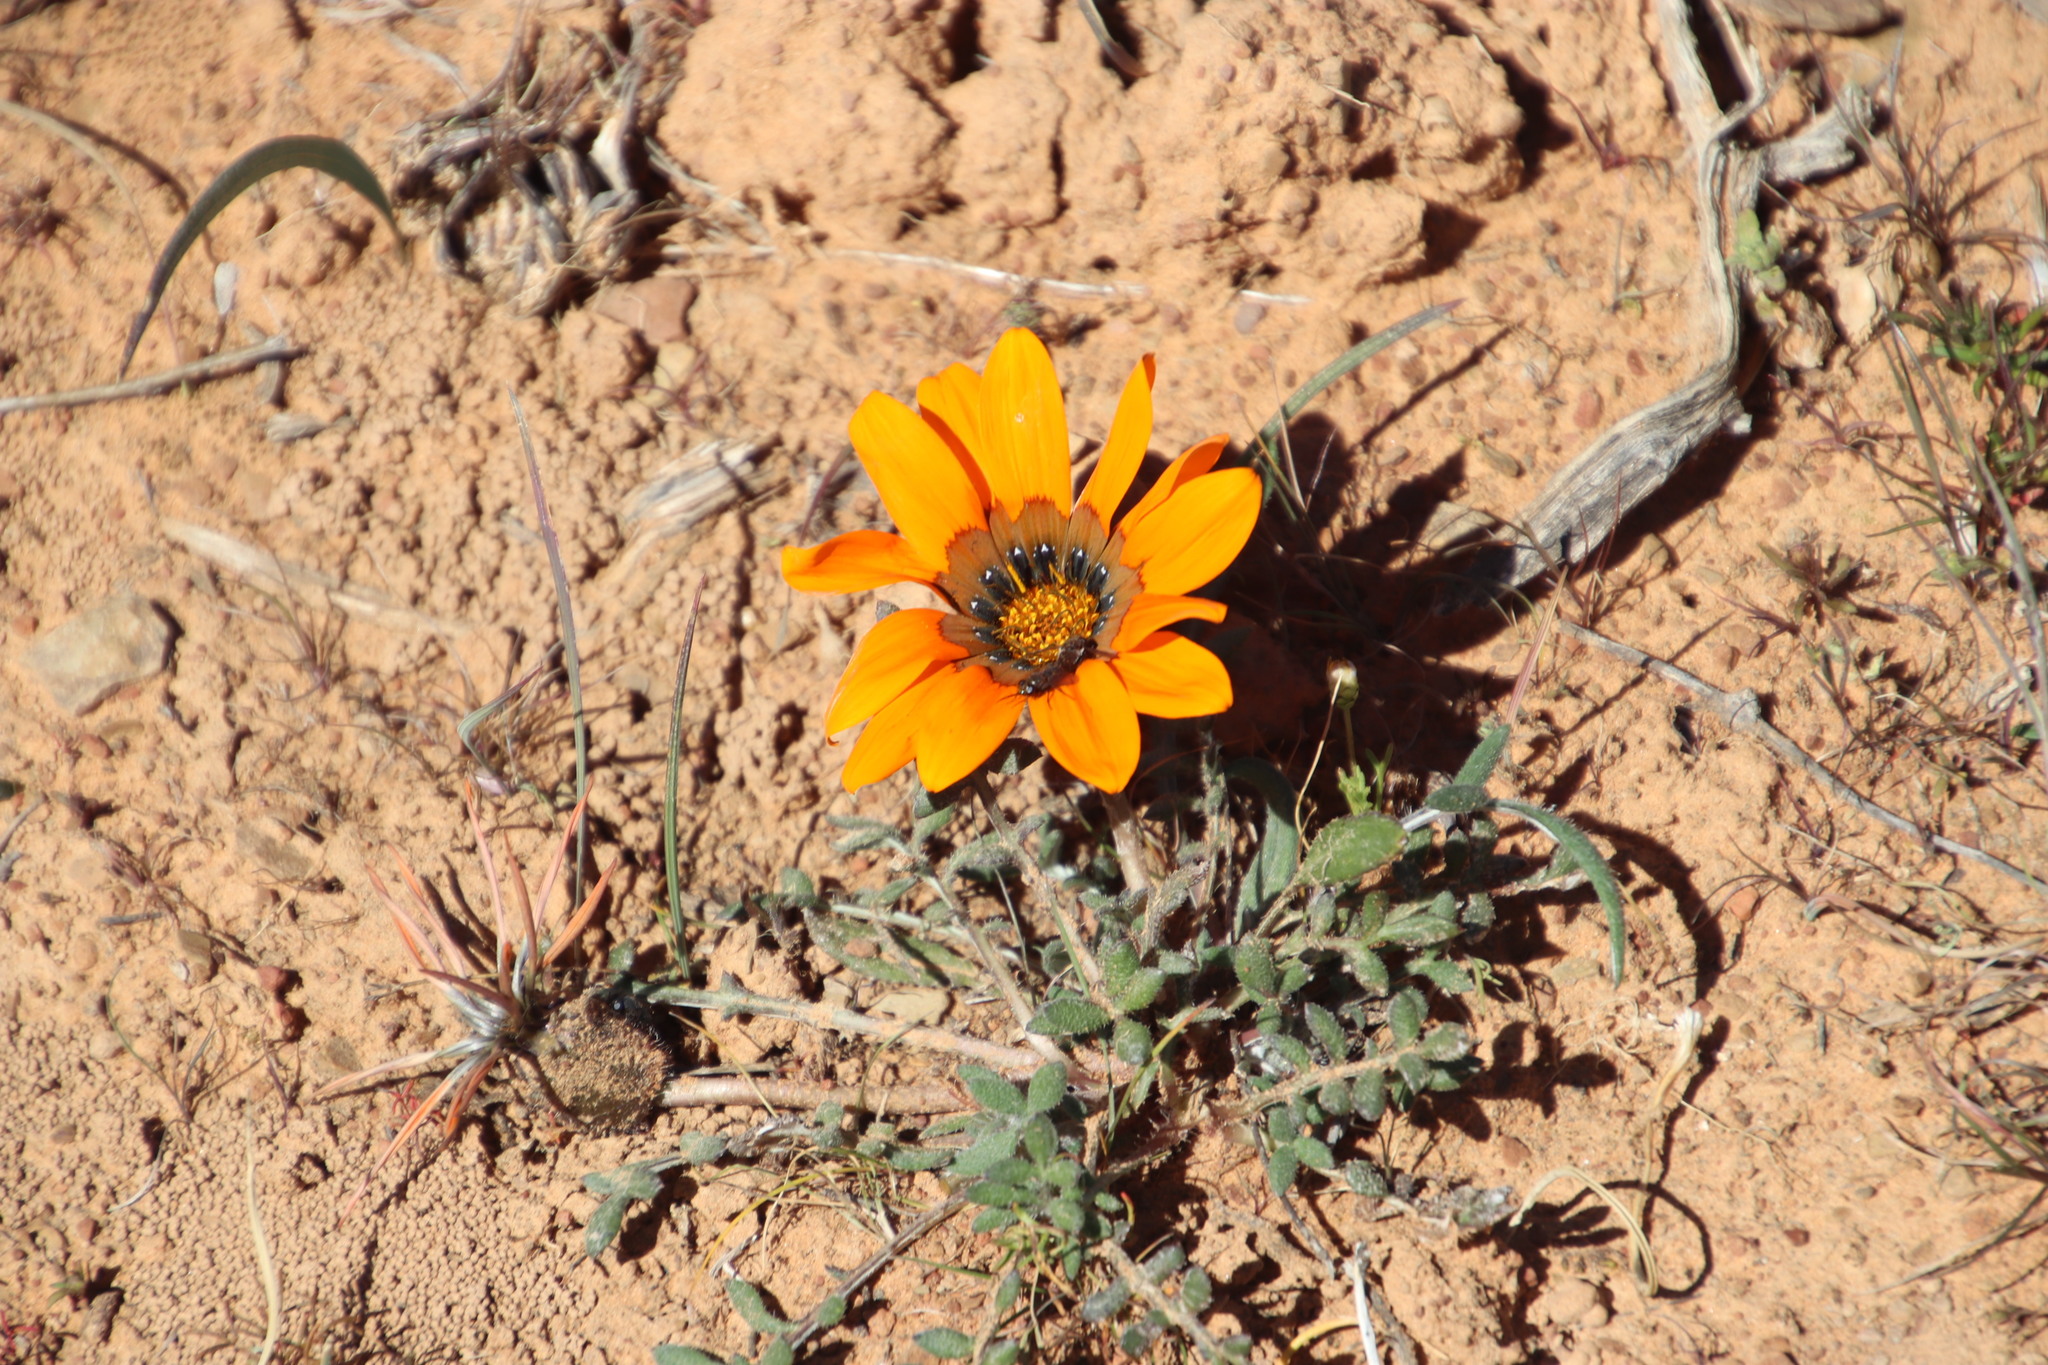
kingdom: Animalia
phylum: Arthropoda
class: Insecta
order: Diptera
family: Bombyliidae
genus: Megapalpus
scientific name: Megapalpus capensis
